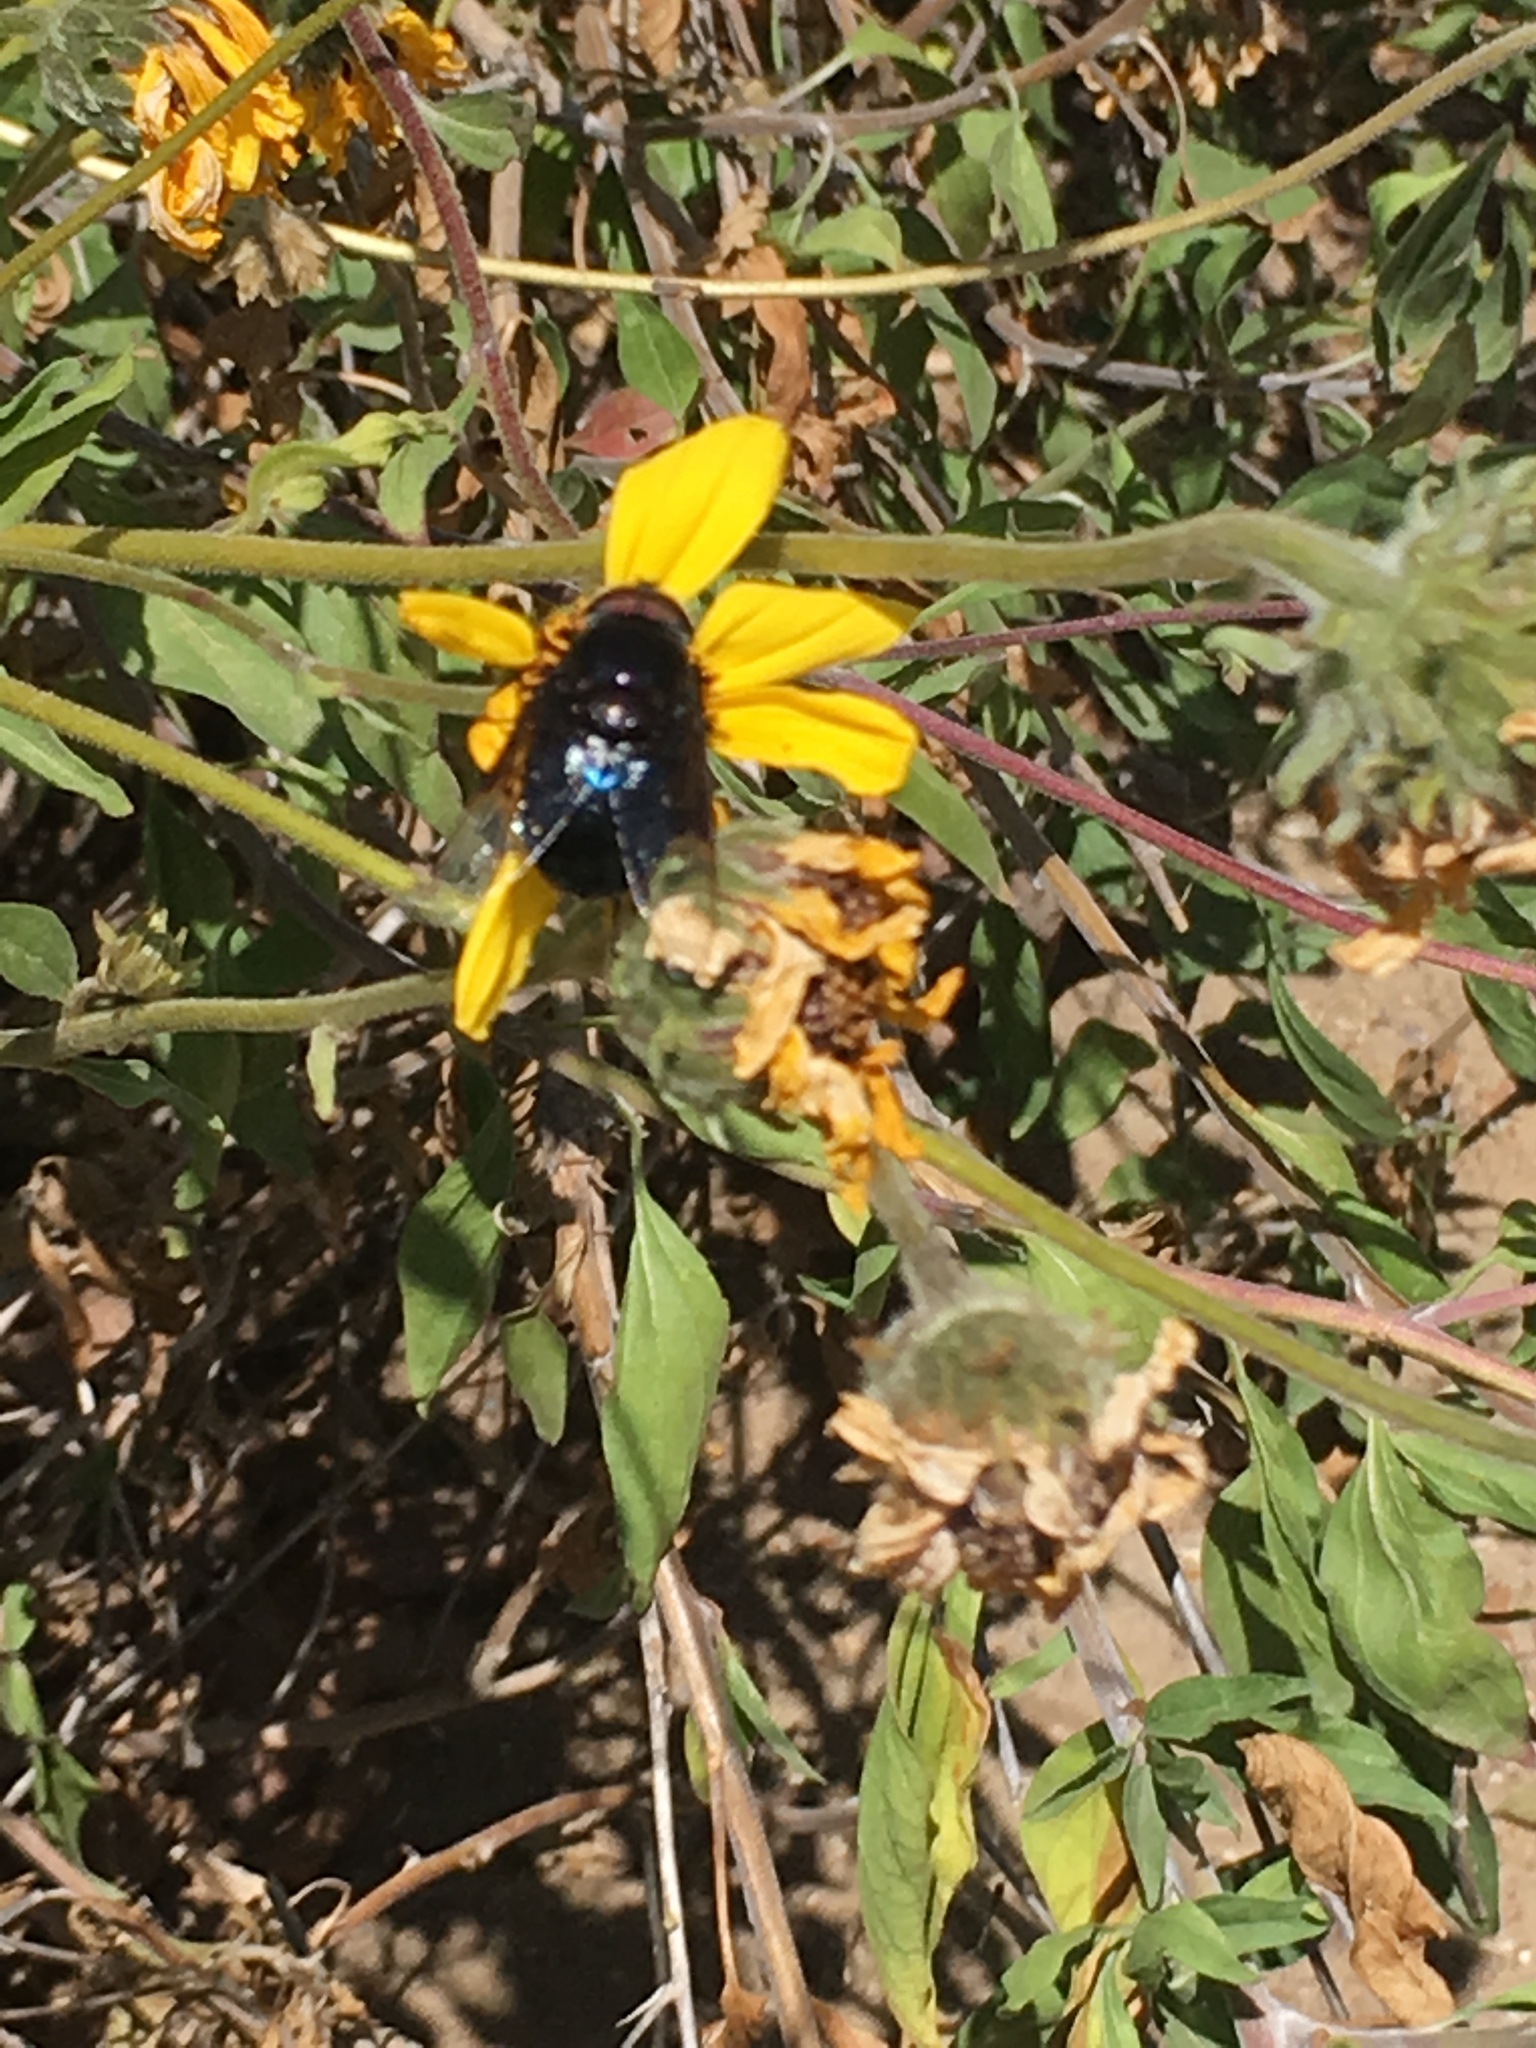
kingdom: Animalia
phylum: Arthropoda
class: Insecta
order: Diptera
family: Syrphidae
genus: Copestylum
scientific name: Copestylum mexicanum
